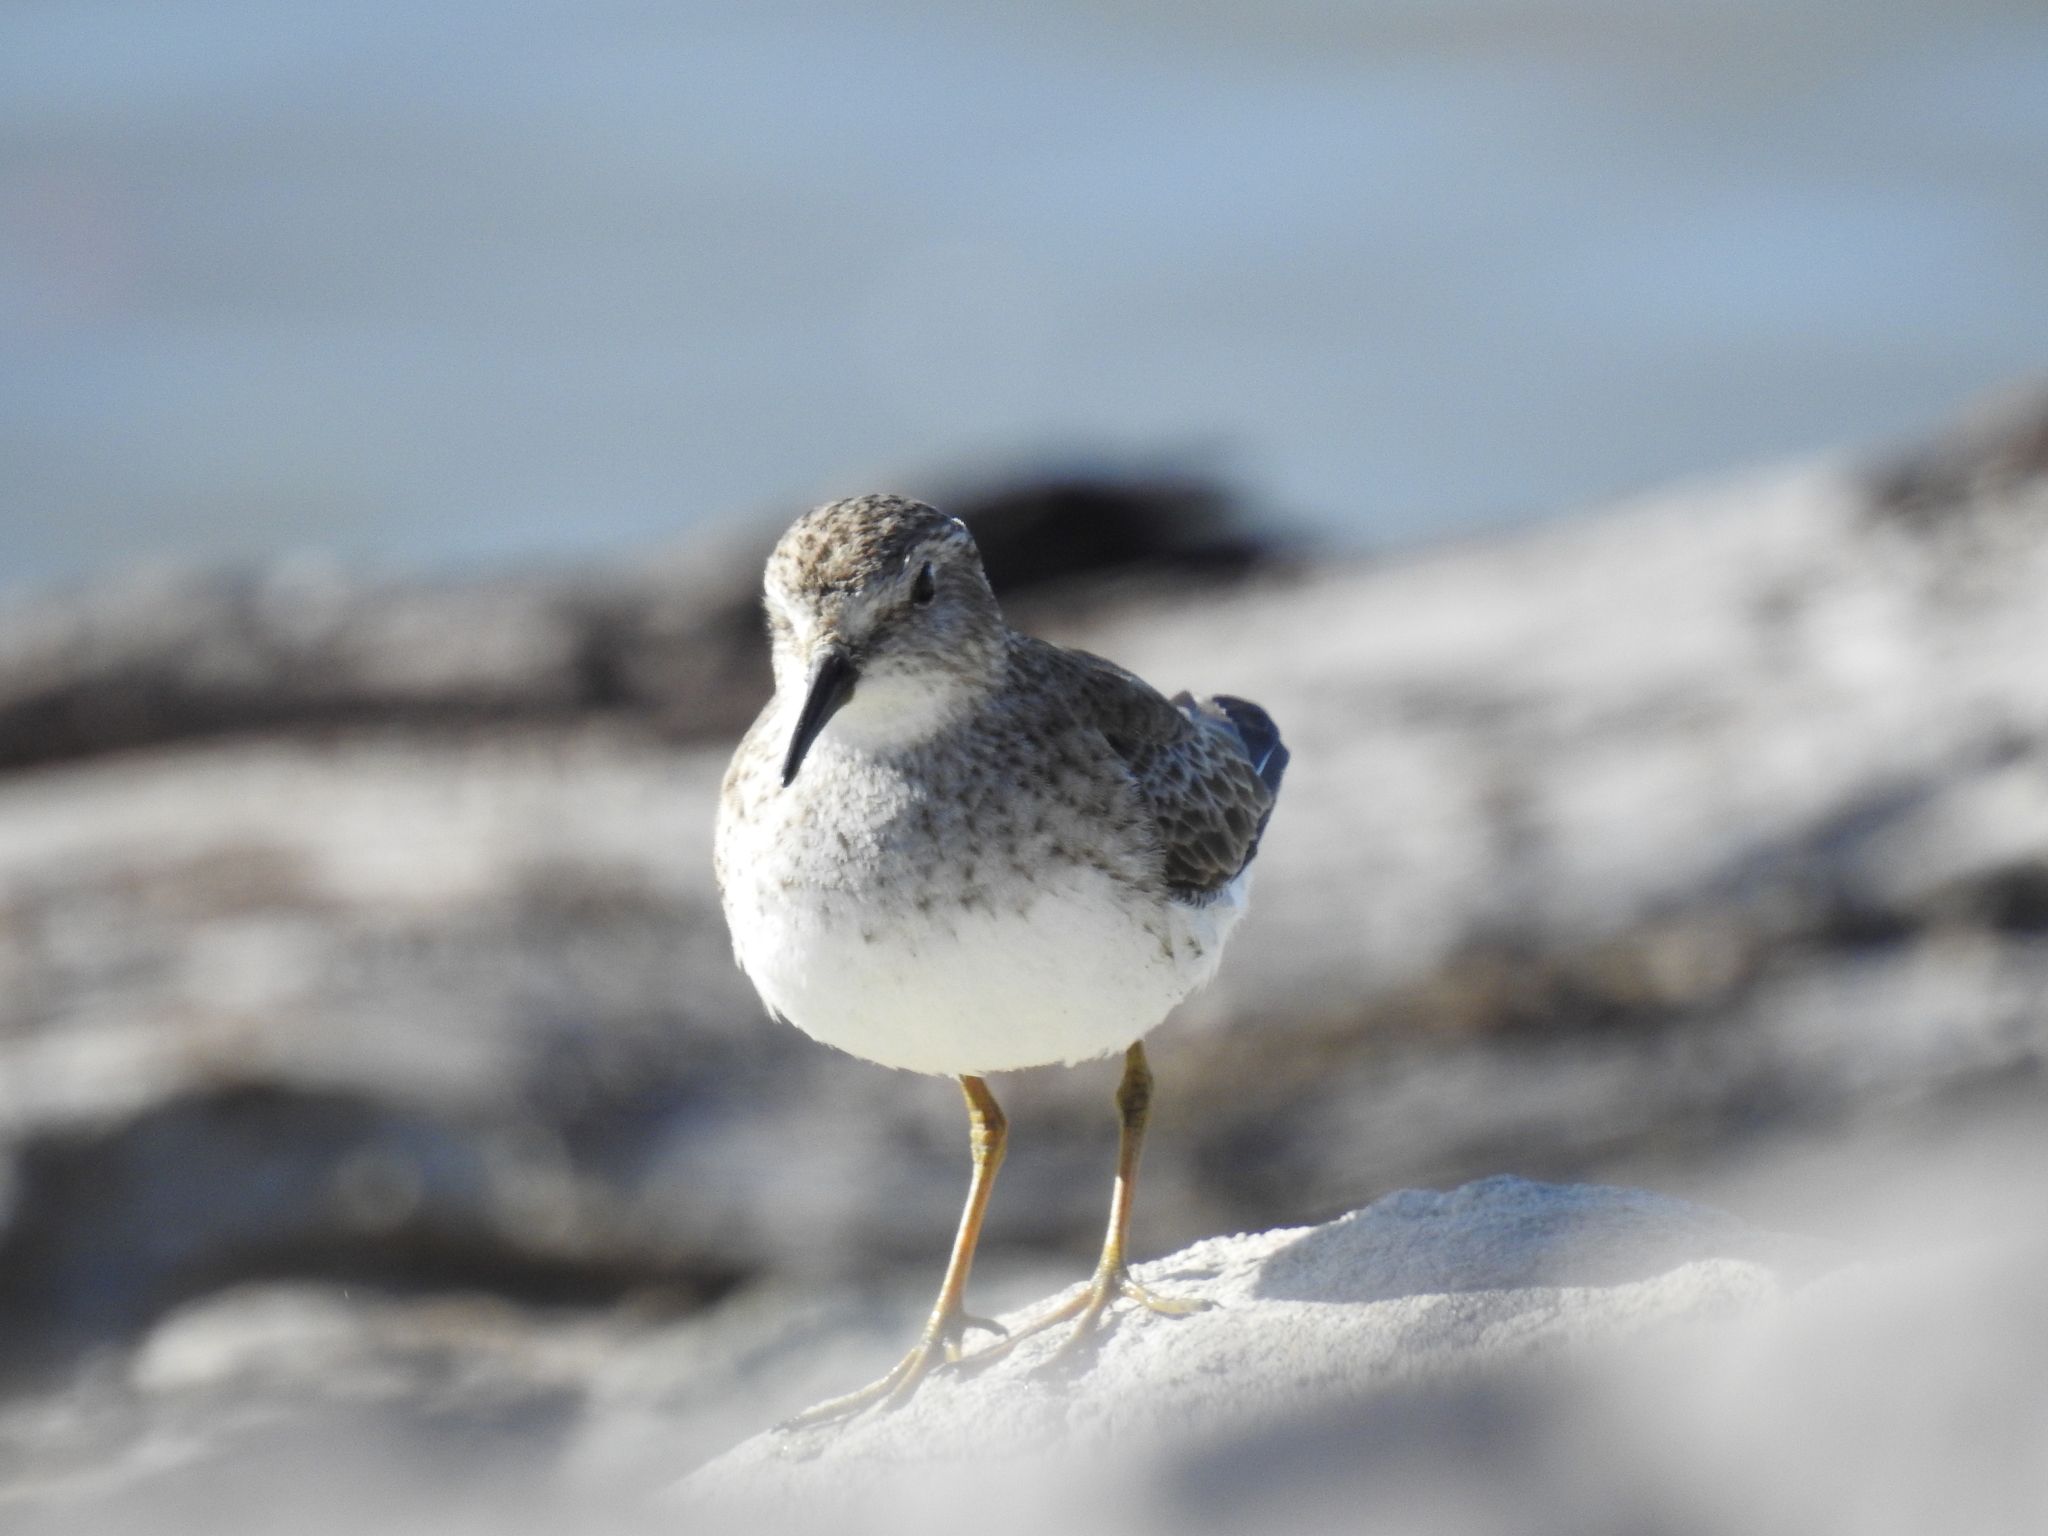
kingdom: Animalia
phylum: Chordata
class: Aves
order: Charadriiformes
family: Scolopacidae
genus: Calidris
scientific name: Calidris minutilla
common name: Least sandpiper
